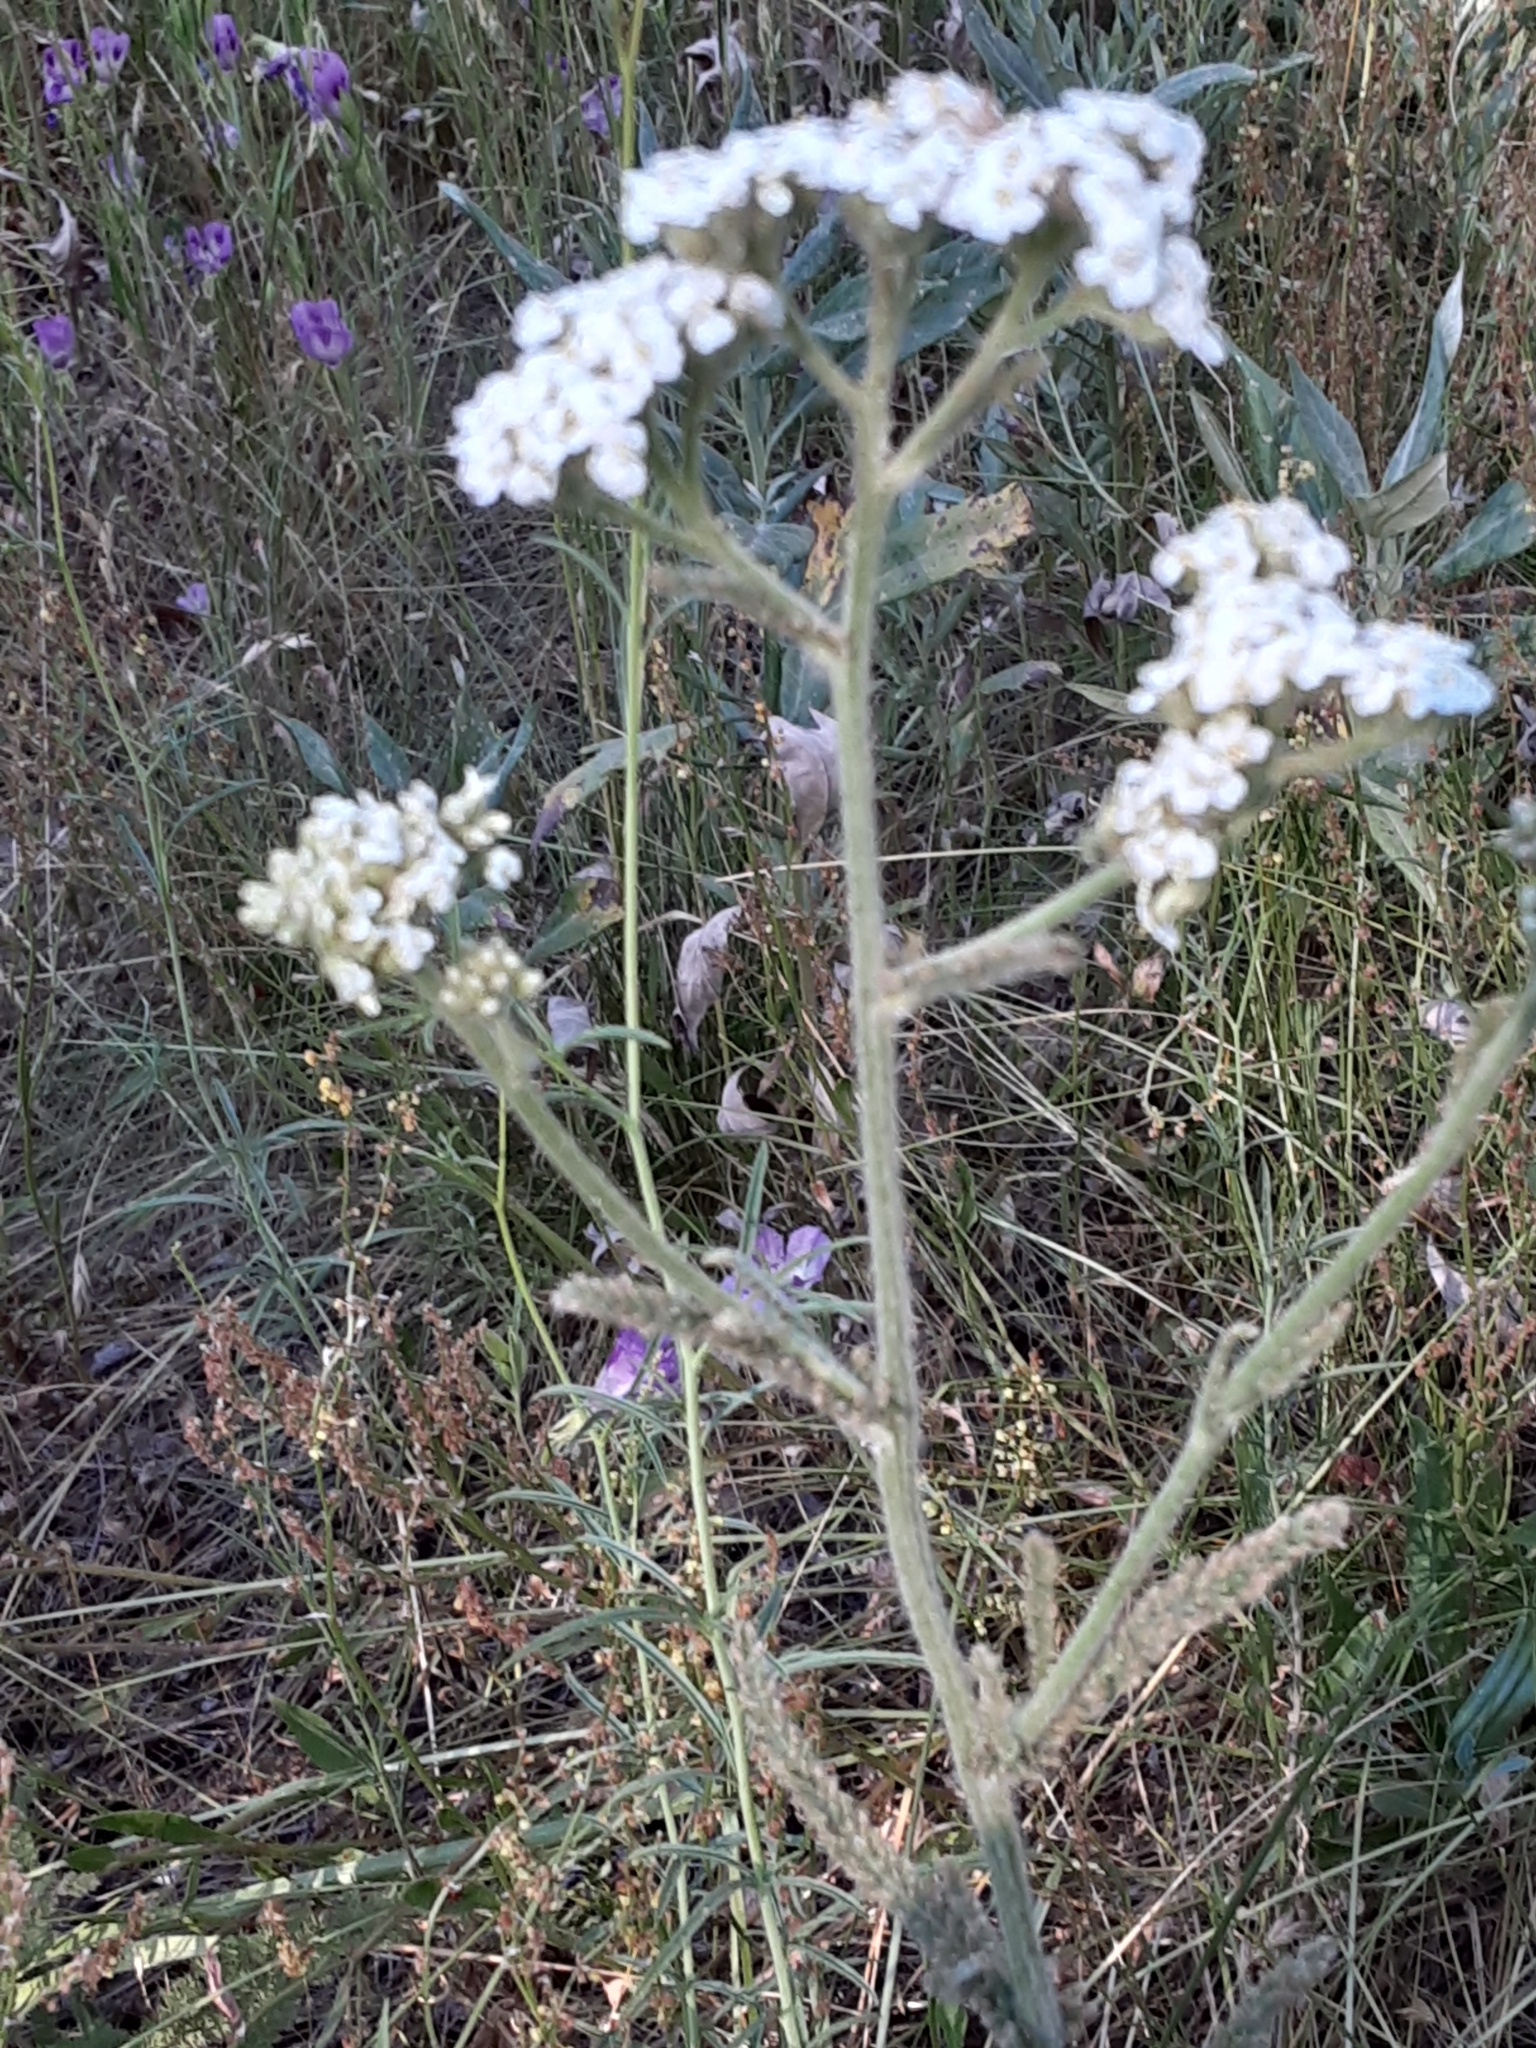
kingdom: Plantae
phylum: Tracheophyta
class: Magnoliopsida
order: Asterales
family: Asteraceae
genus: Achillea
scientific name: Achillea millefolium
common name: Yarrow
